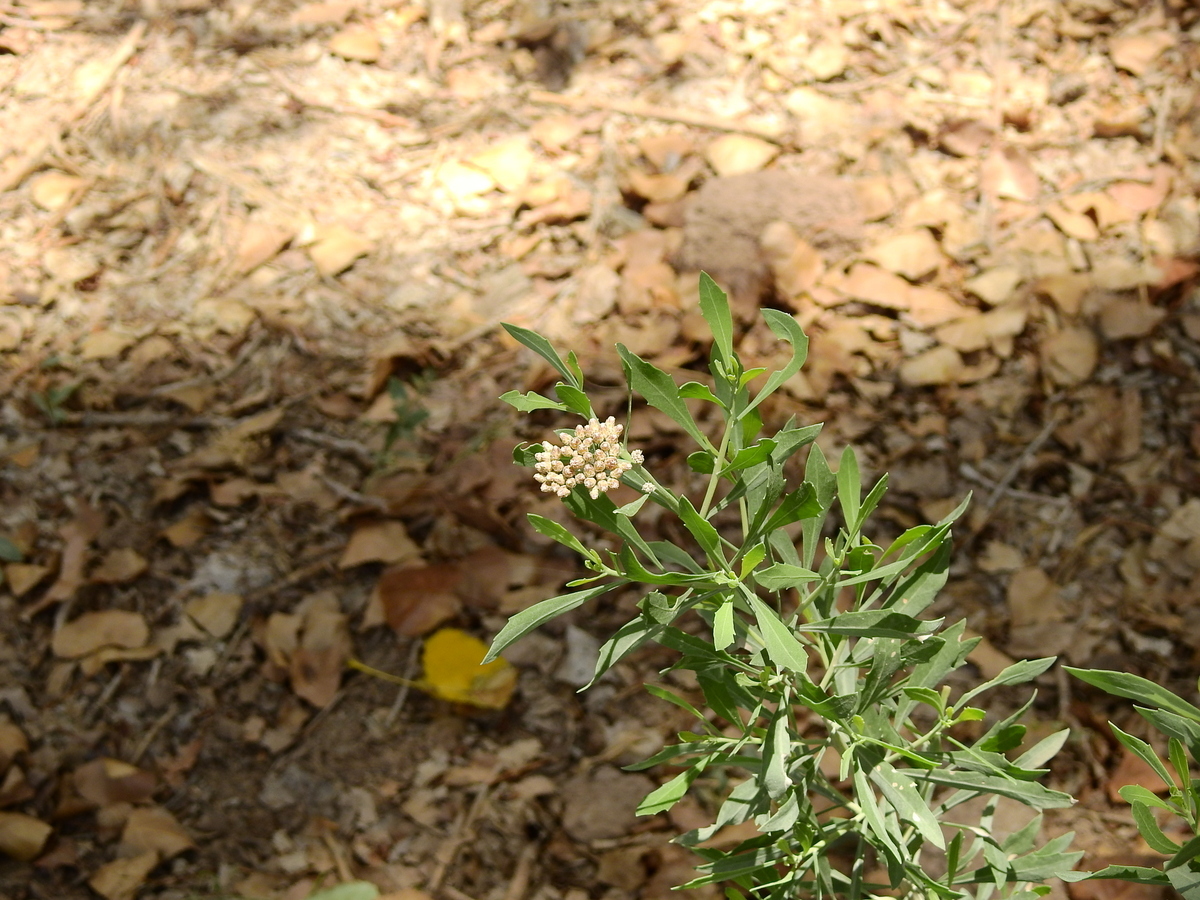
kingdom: Plantae
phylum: Tracheophyta
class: Magnoliopsida
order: Asterales
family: Asteraceae
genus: Tessaria
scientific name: Tessaria absinthioides
